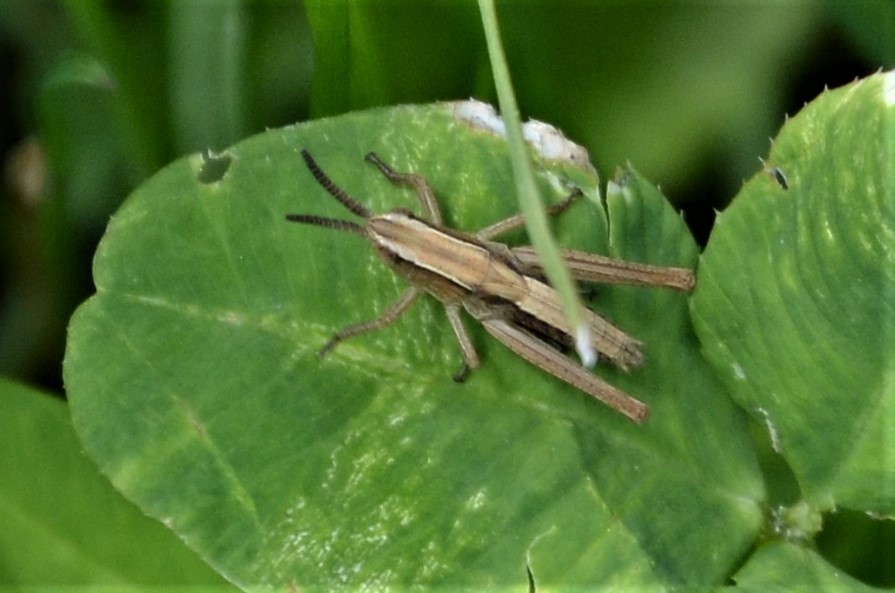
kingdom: Animalia
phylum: Arthropoda
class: Insecta
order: Orthoptera
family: Acrididae
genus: Chorthippus
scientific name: Chorthippus albomarginatus
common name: Lesser marsh grasshopper
